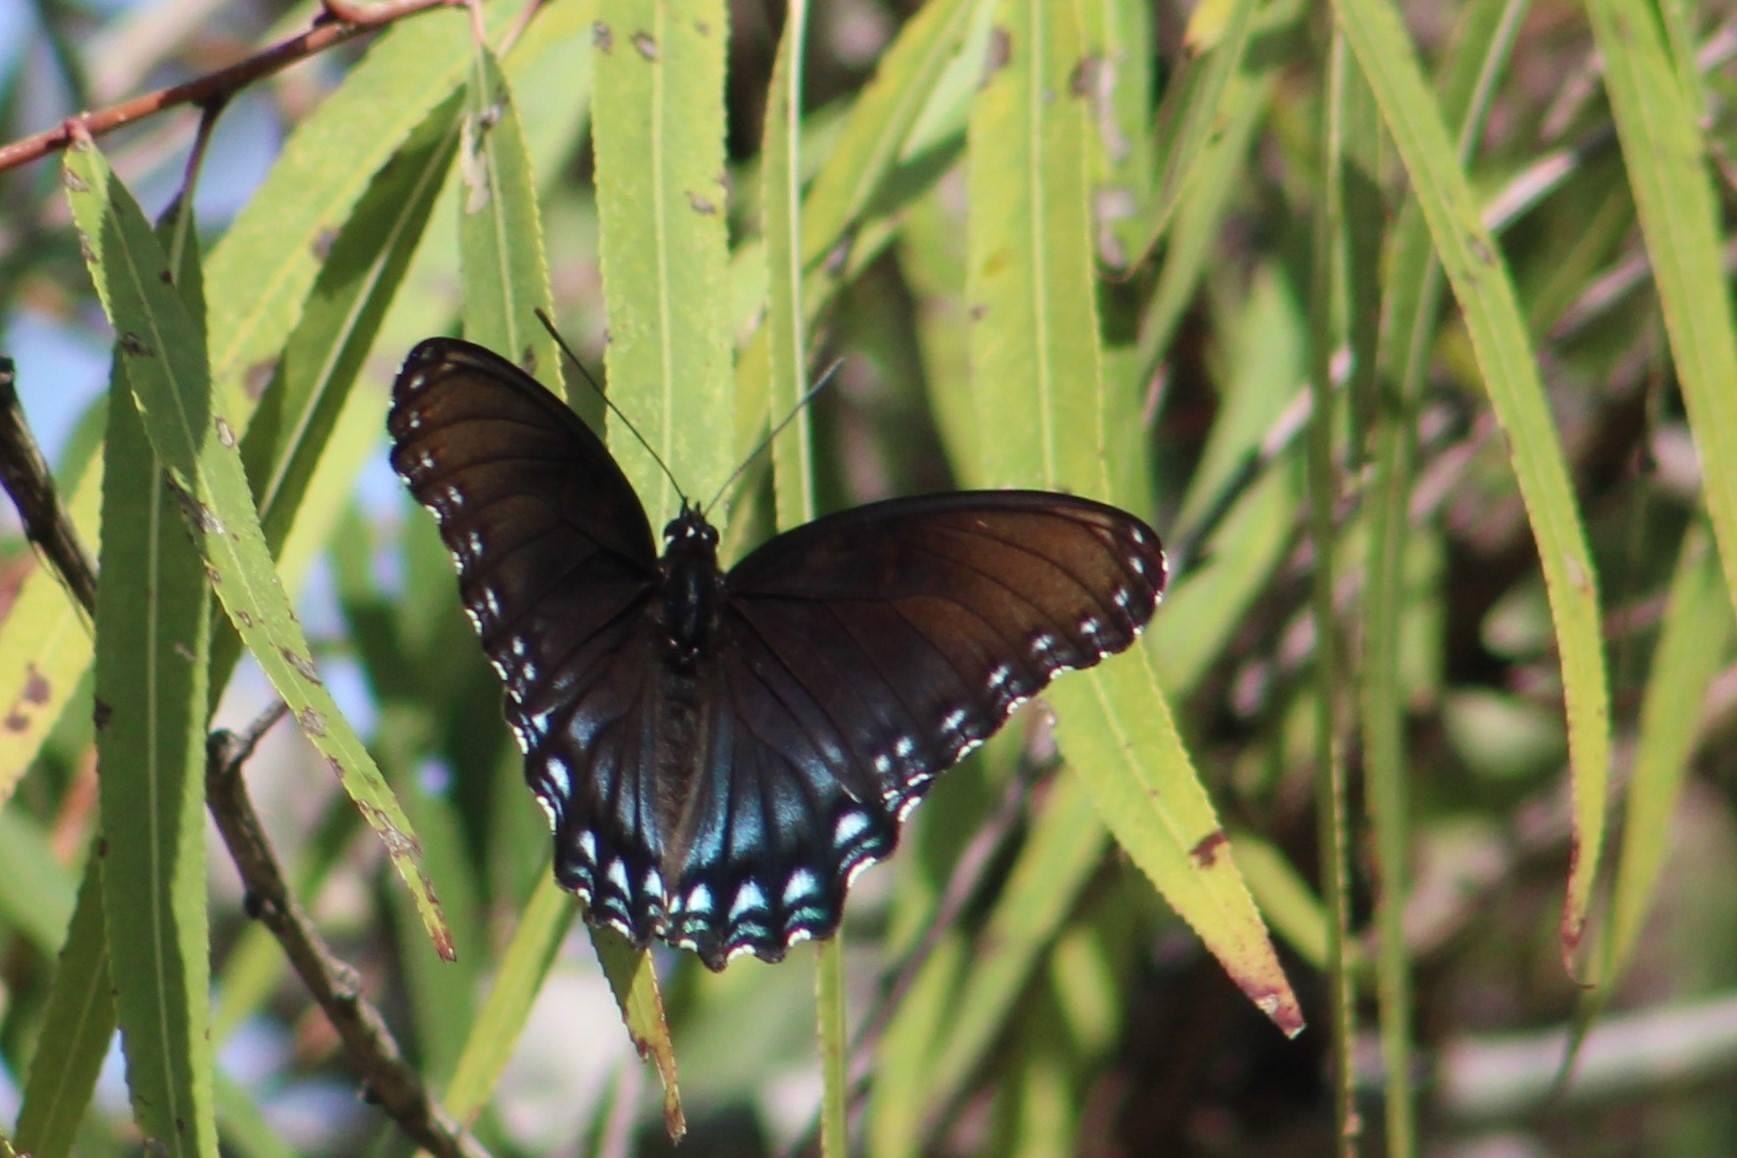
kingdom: Animalia
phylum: Arthropoda
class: Insecta
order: Lepidoptera
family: Nymphalidae
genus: Limenitis
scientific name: Limenitis arthemis
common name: Red-spotted admiral
